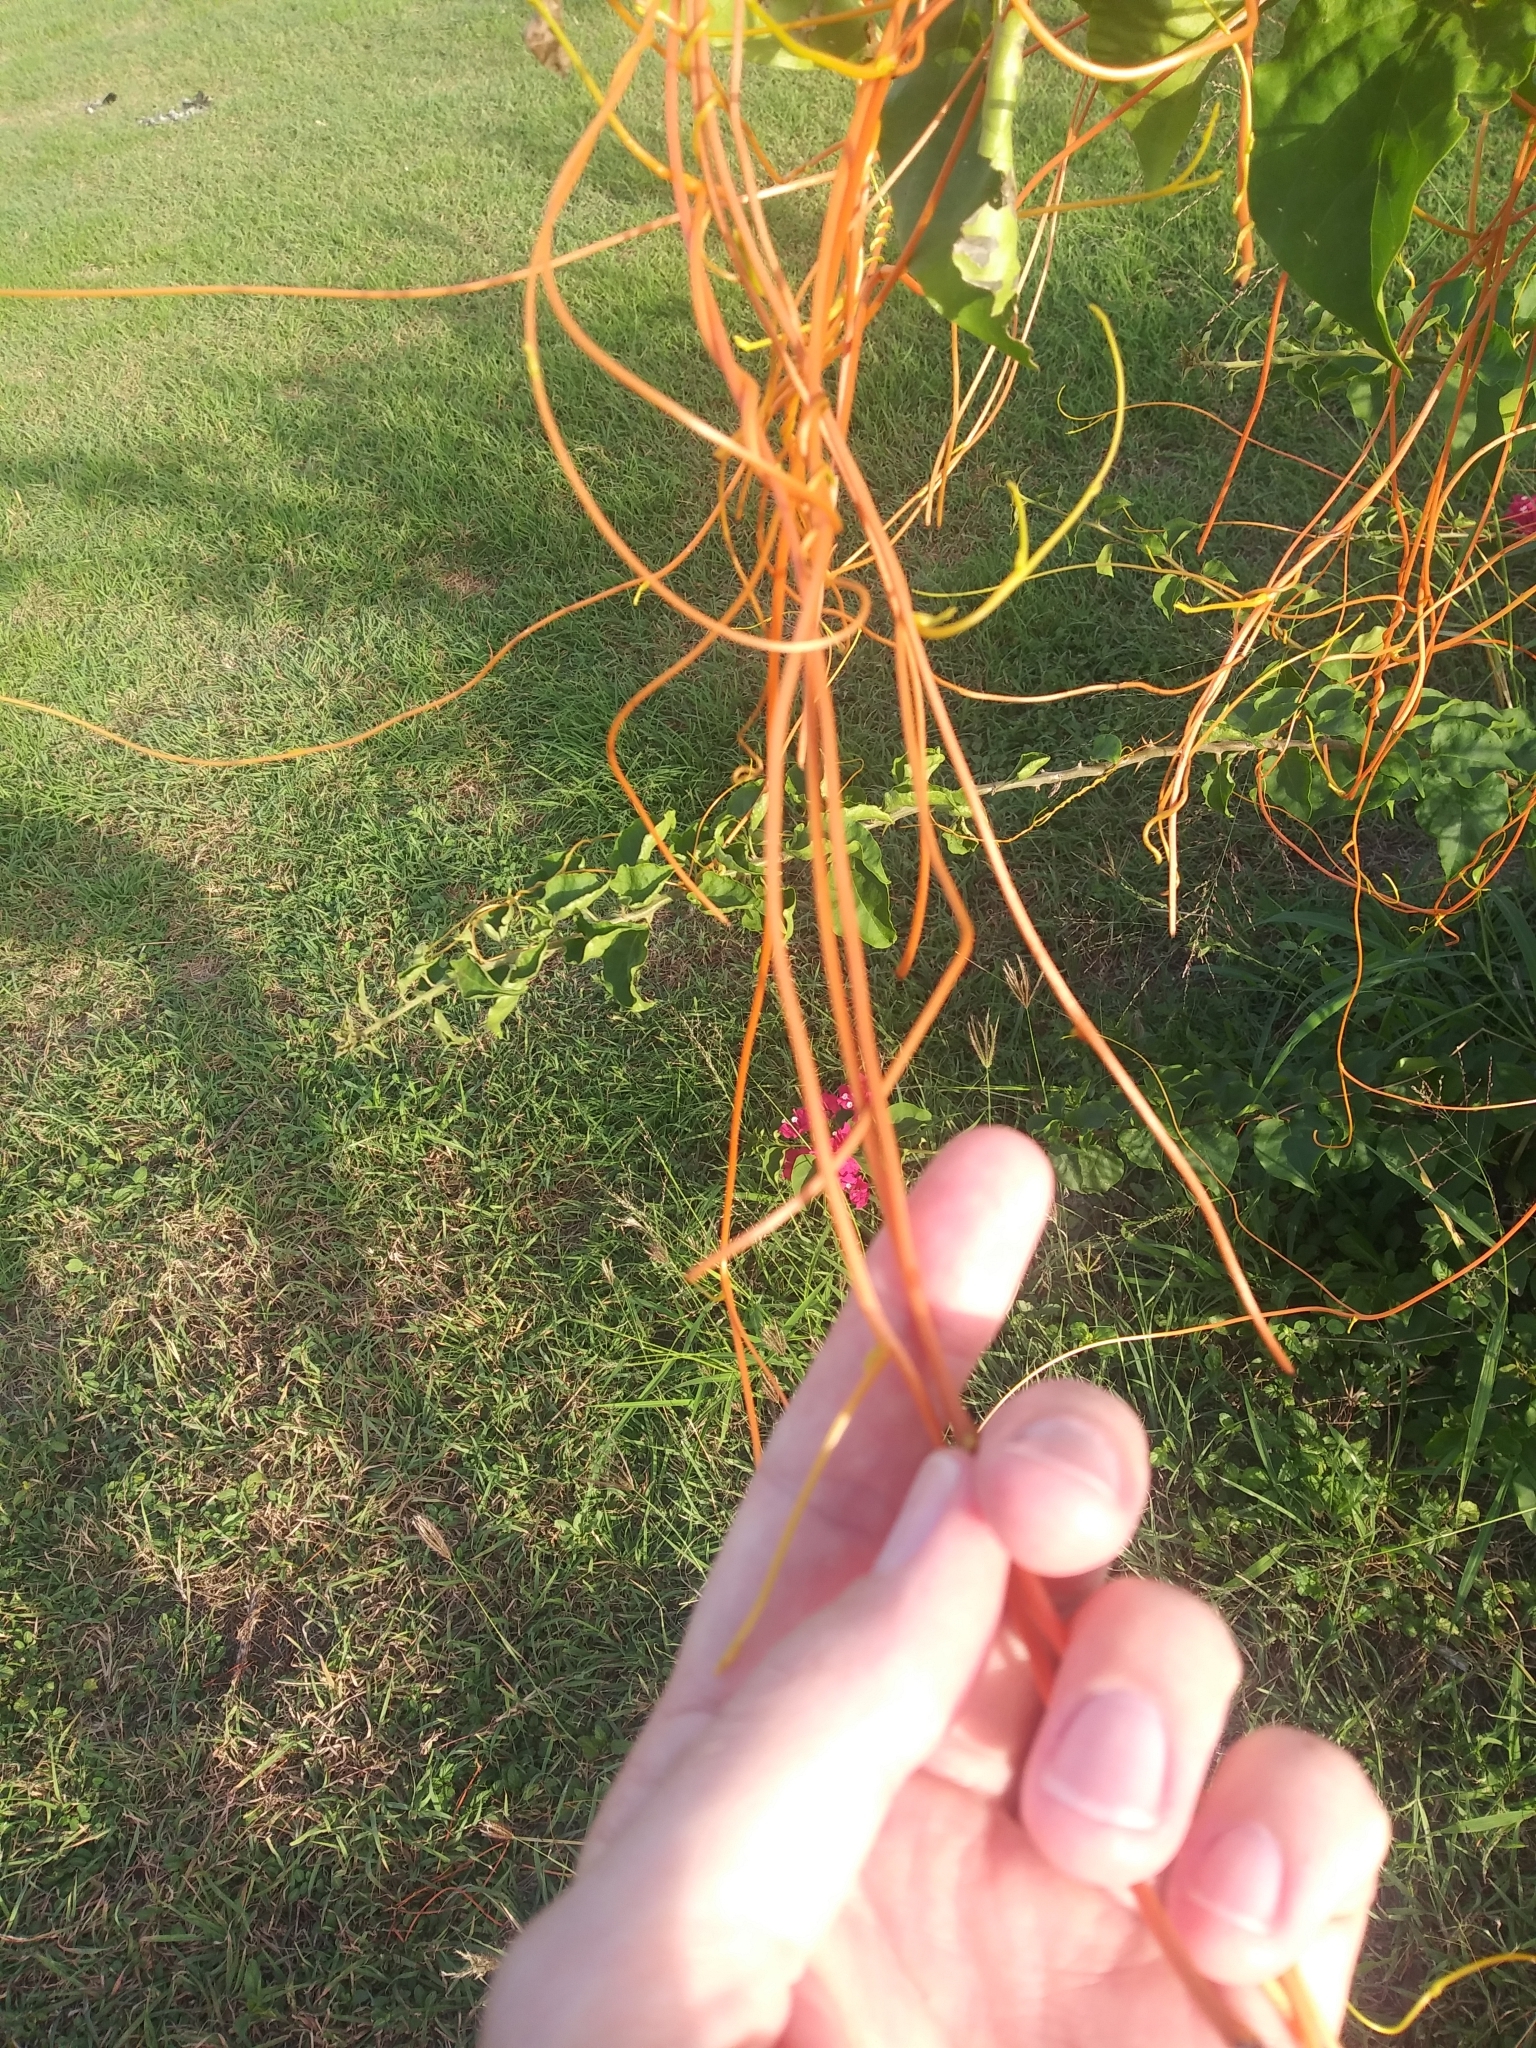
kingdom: Plantae
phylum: Tracheophyta
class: Magnoliopsida
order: Laurales
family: Lauraceae
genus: Cassytha
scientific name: Cassytha filiformis
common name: Dodder-laurel
